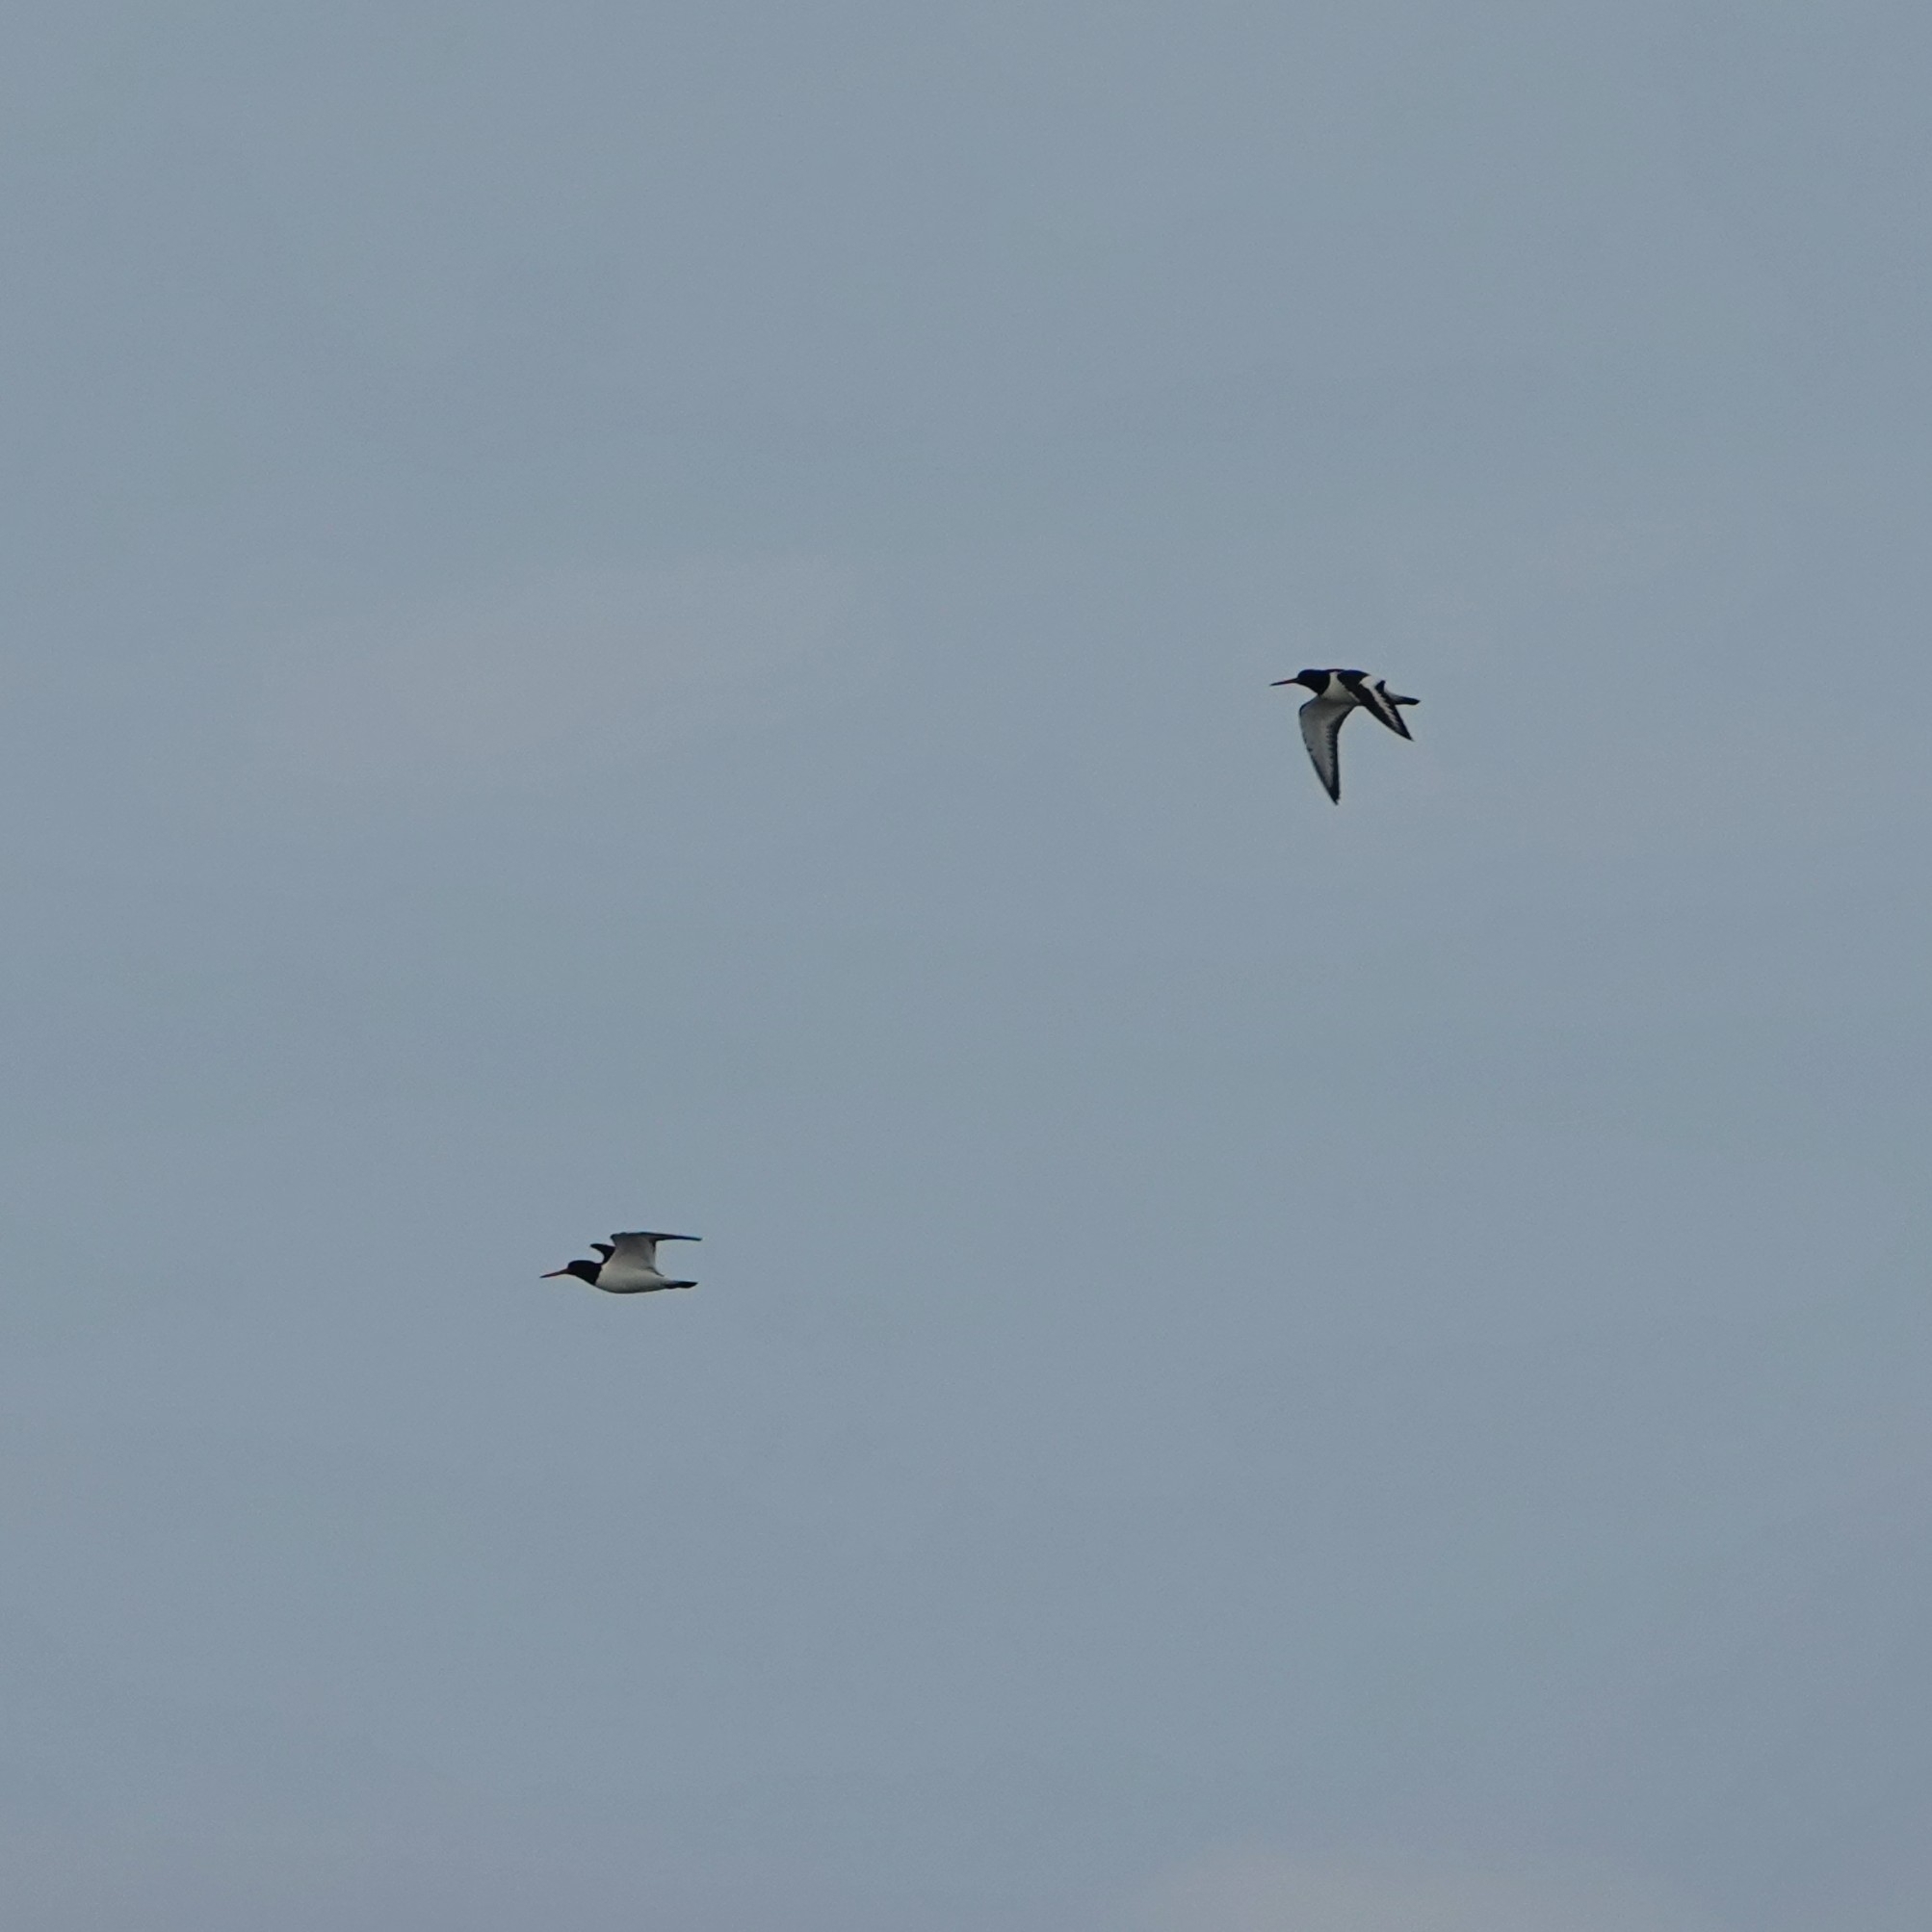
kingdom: Animalia
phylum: Chordata
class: Aves
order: Charadriiformes
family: Haematopodidae
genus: Haematopus
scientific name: Haematopus ostralegus
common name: Eurasian oystercatcher
